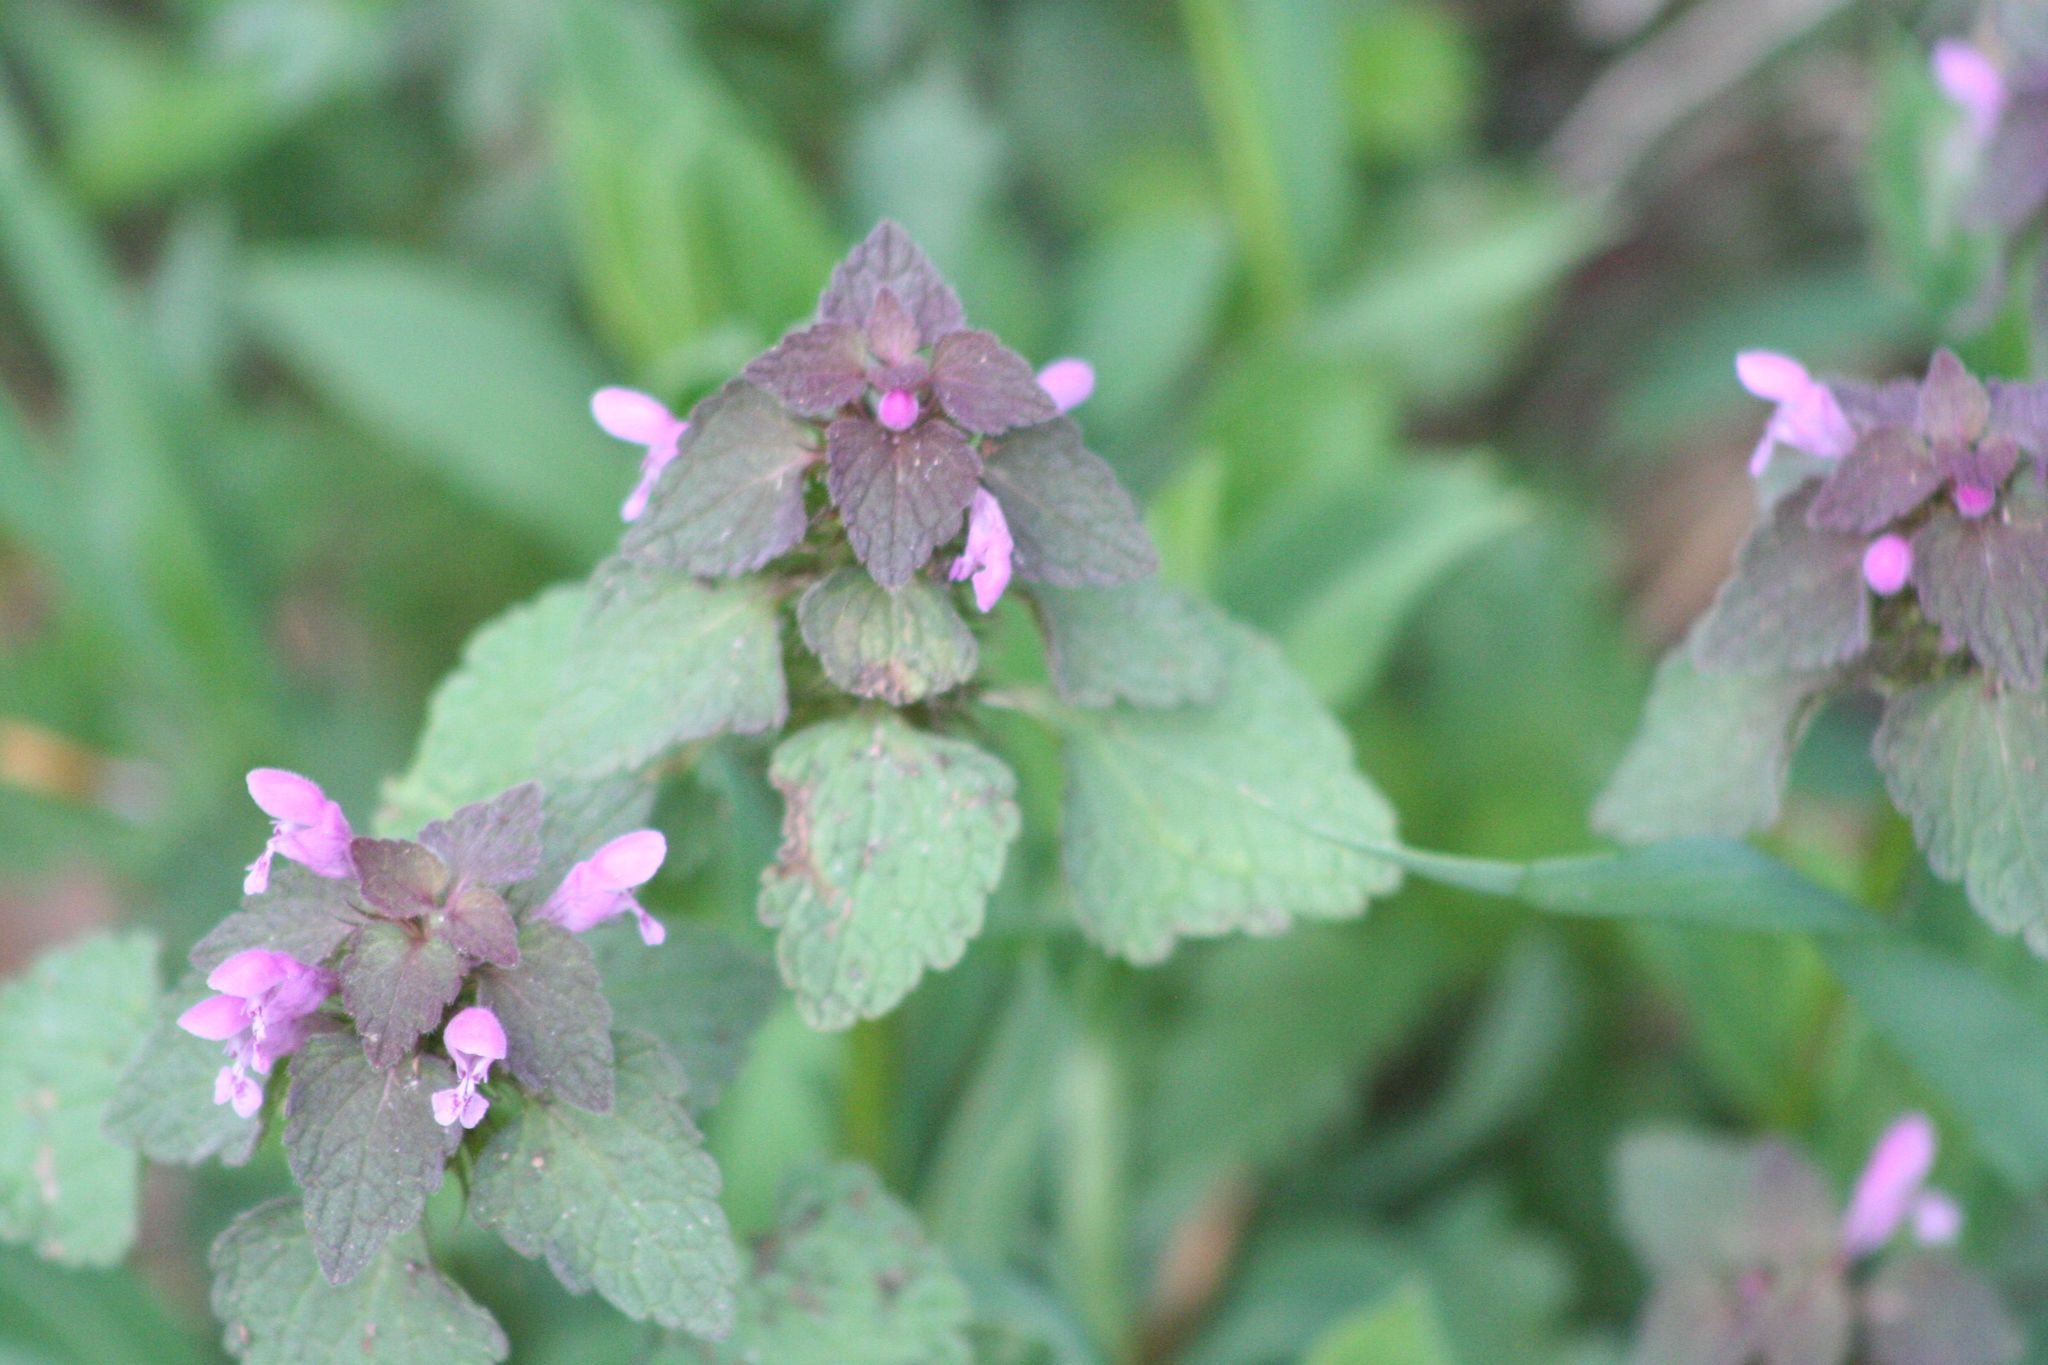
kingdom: Plantae
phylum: Tracheophyta
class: Magnoliopsida
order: Lamiales
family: Lamiaceae
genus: Lamium
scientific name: Lamium purpureum
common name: Red dead-nettle
